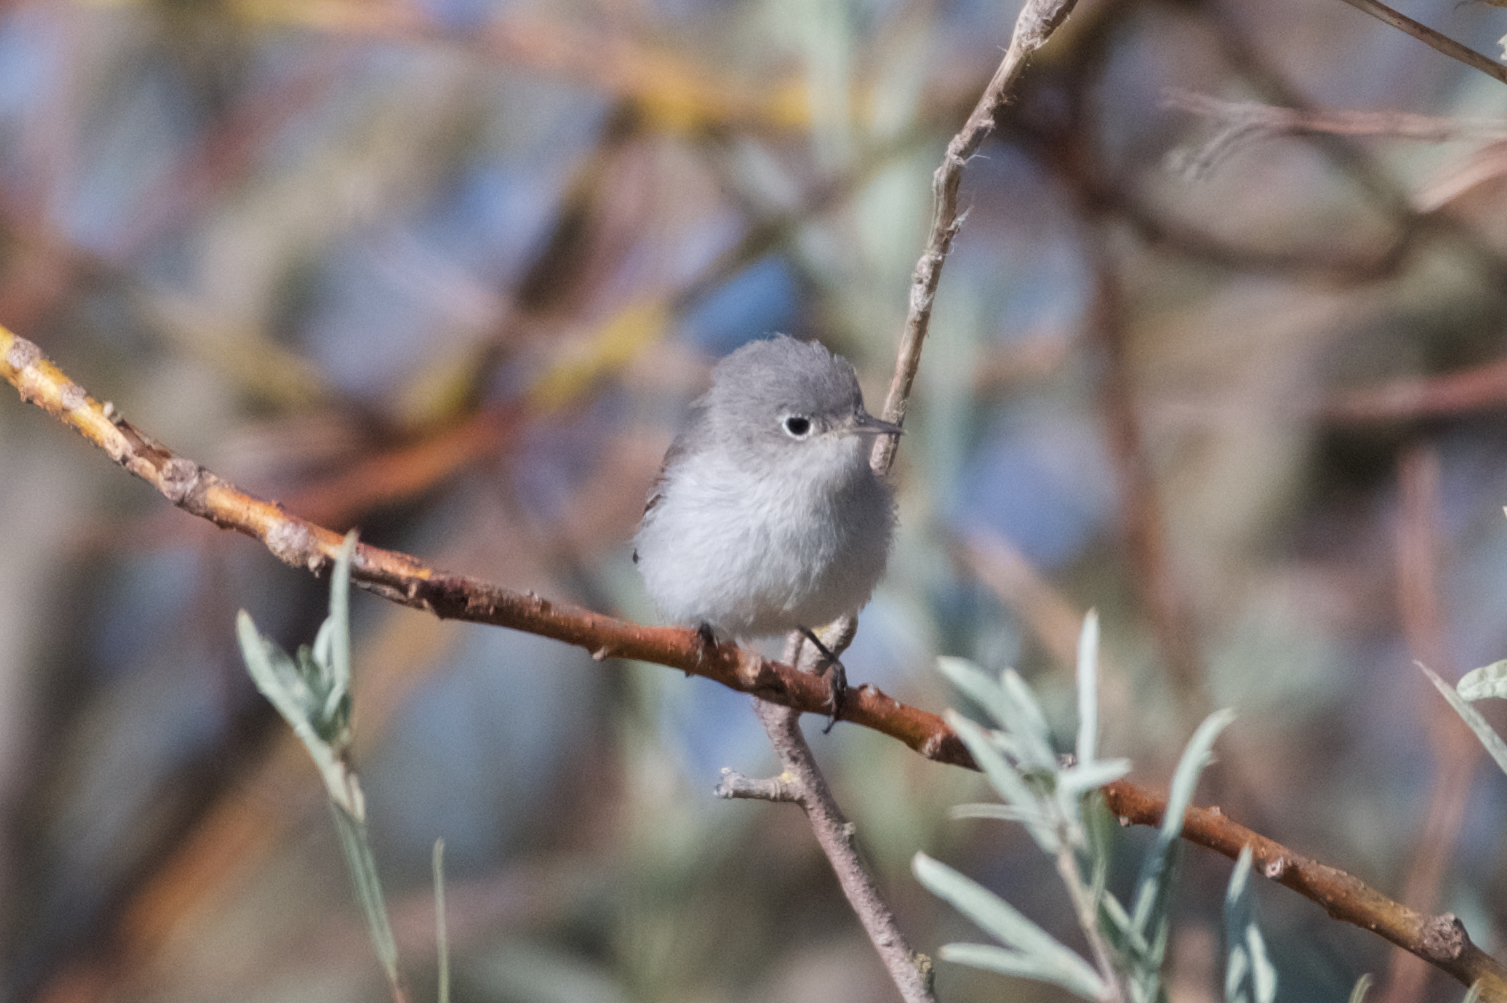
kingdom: Animalia
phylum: Chordata
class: Aves
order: Passeriformes
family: Polioptilidae
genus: Polioptila
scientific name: Polioptila caerulea
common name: Blue-gray gnatcatcher
